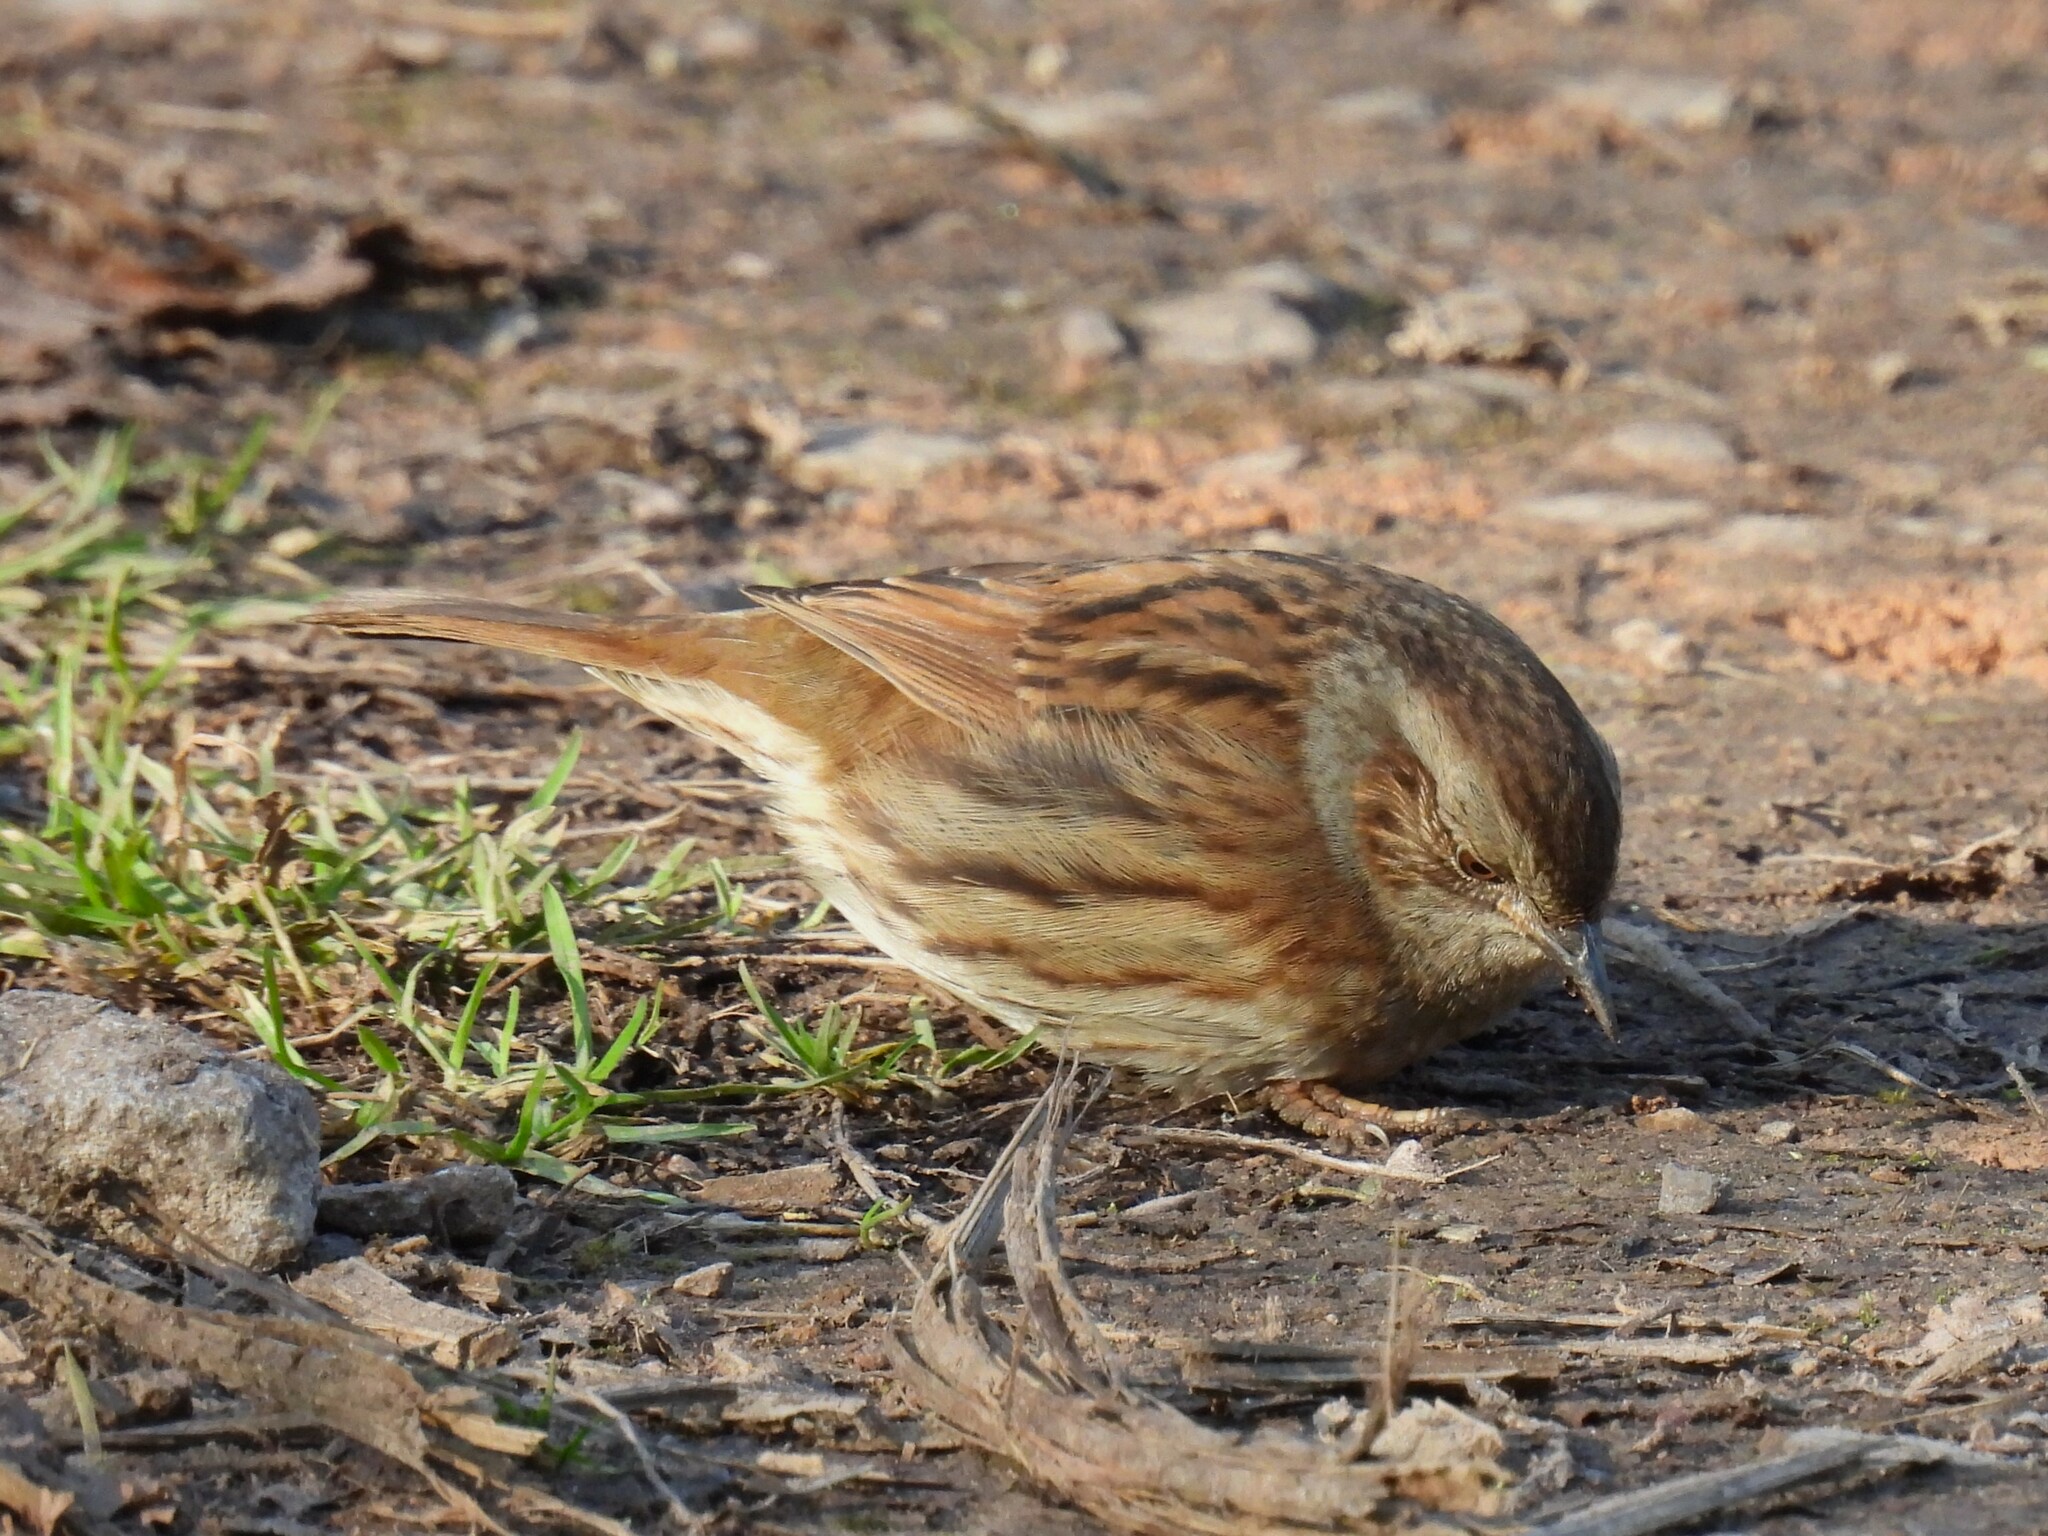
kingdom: Animalia
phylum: Chordata
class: Aves
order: Passeriformes
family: Prunellidae
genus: Prunella
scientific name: Prunella modularis
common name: Dunnock
